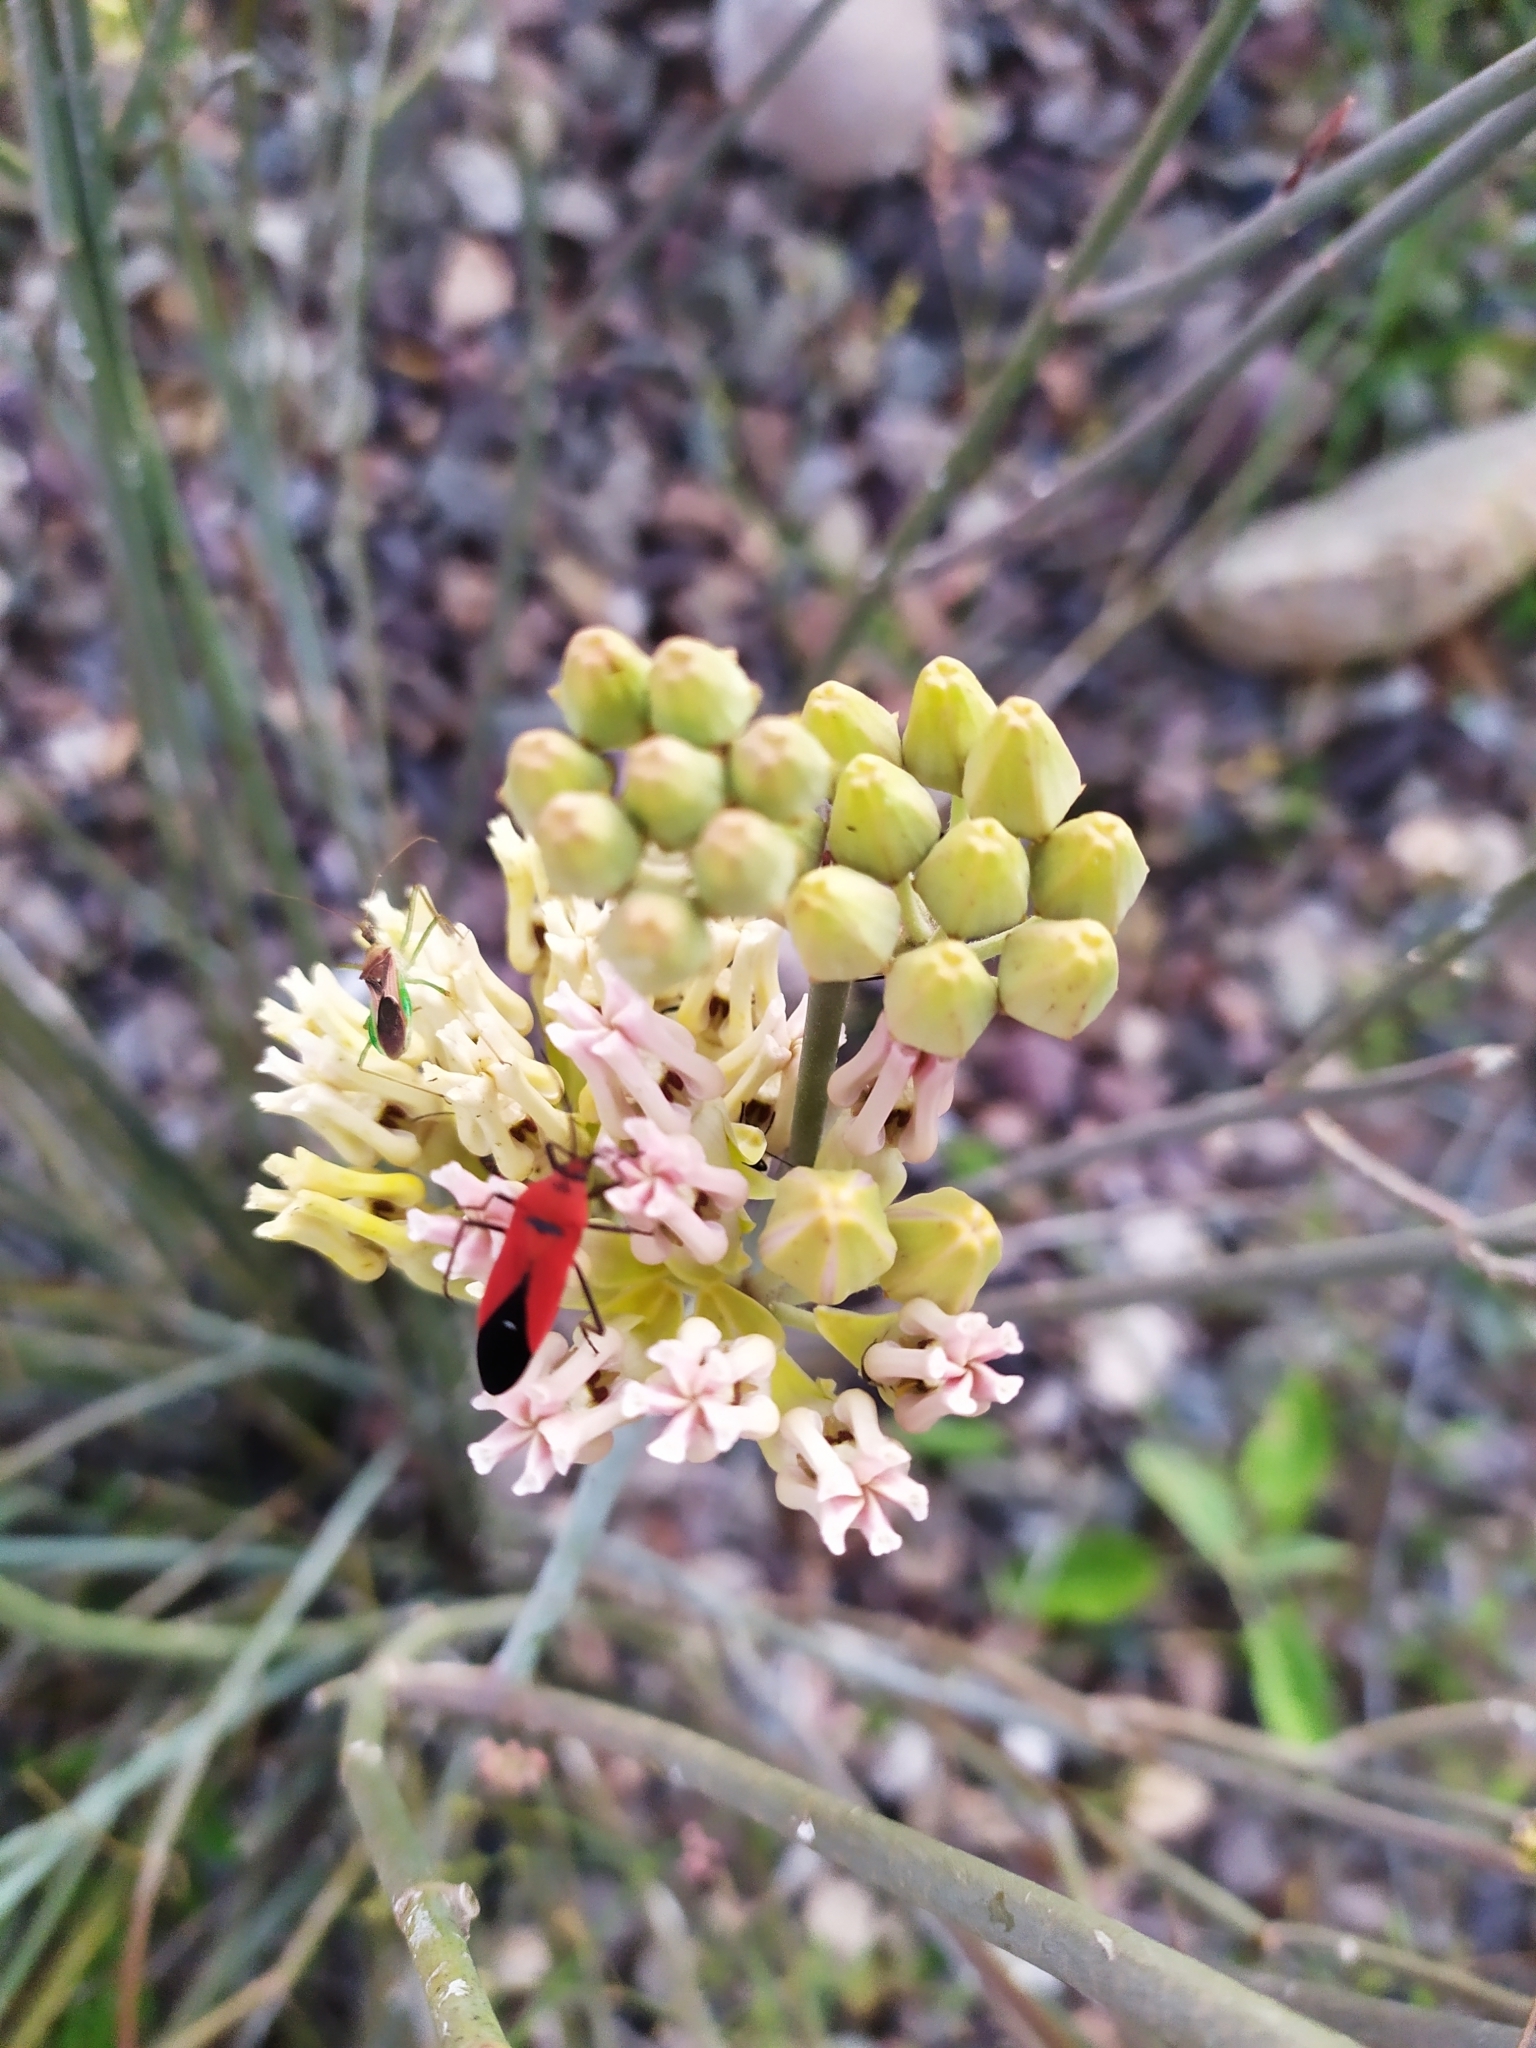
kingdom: Plantae
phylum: Tracheophyta
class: Magnoliopsida
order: Gentianales
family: Apocynaceae
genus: Asclepias
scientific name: Asclepias subulata
